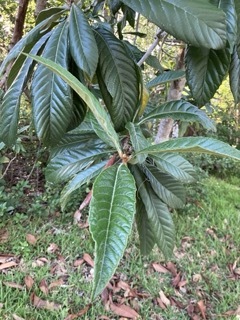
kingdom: Plantae
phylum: Tracheophyta
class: Magnoliopsida
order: Rosales
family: Rosaceae
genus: Rhaphiolepis
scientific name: Rhaphiolepis bibas
